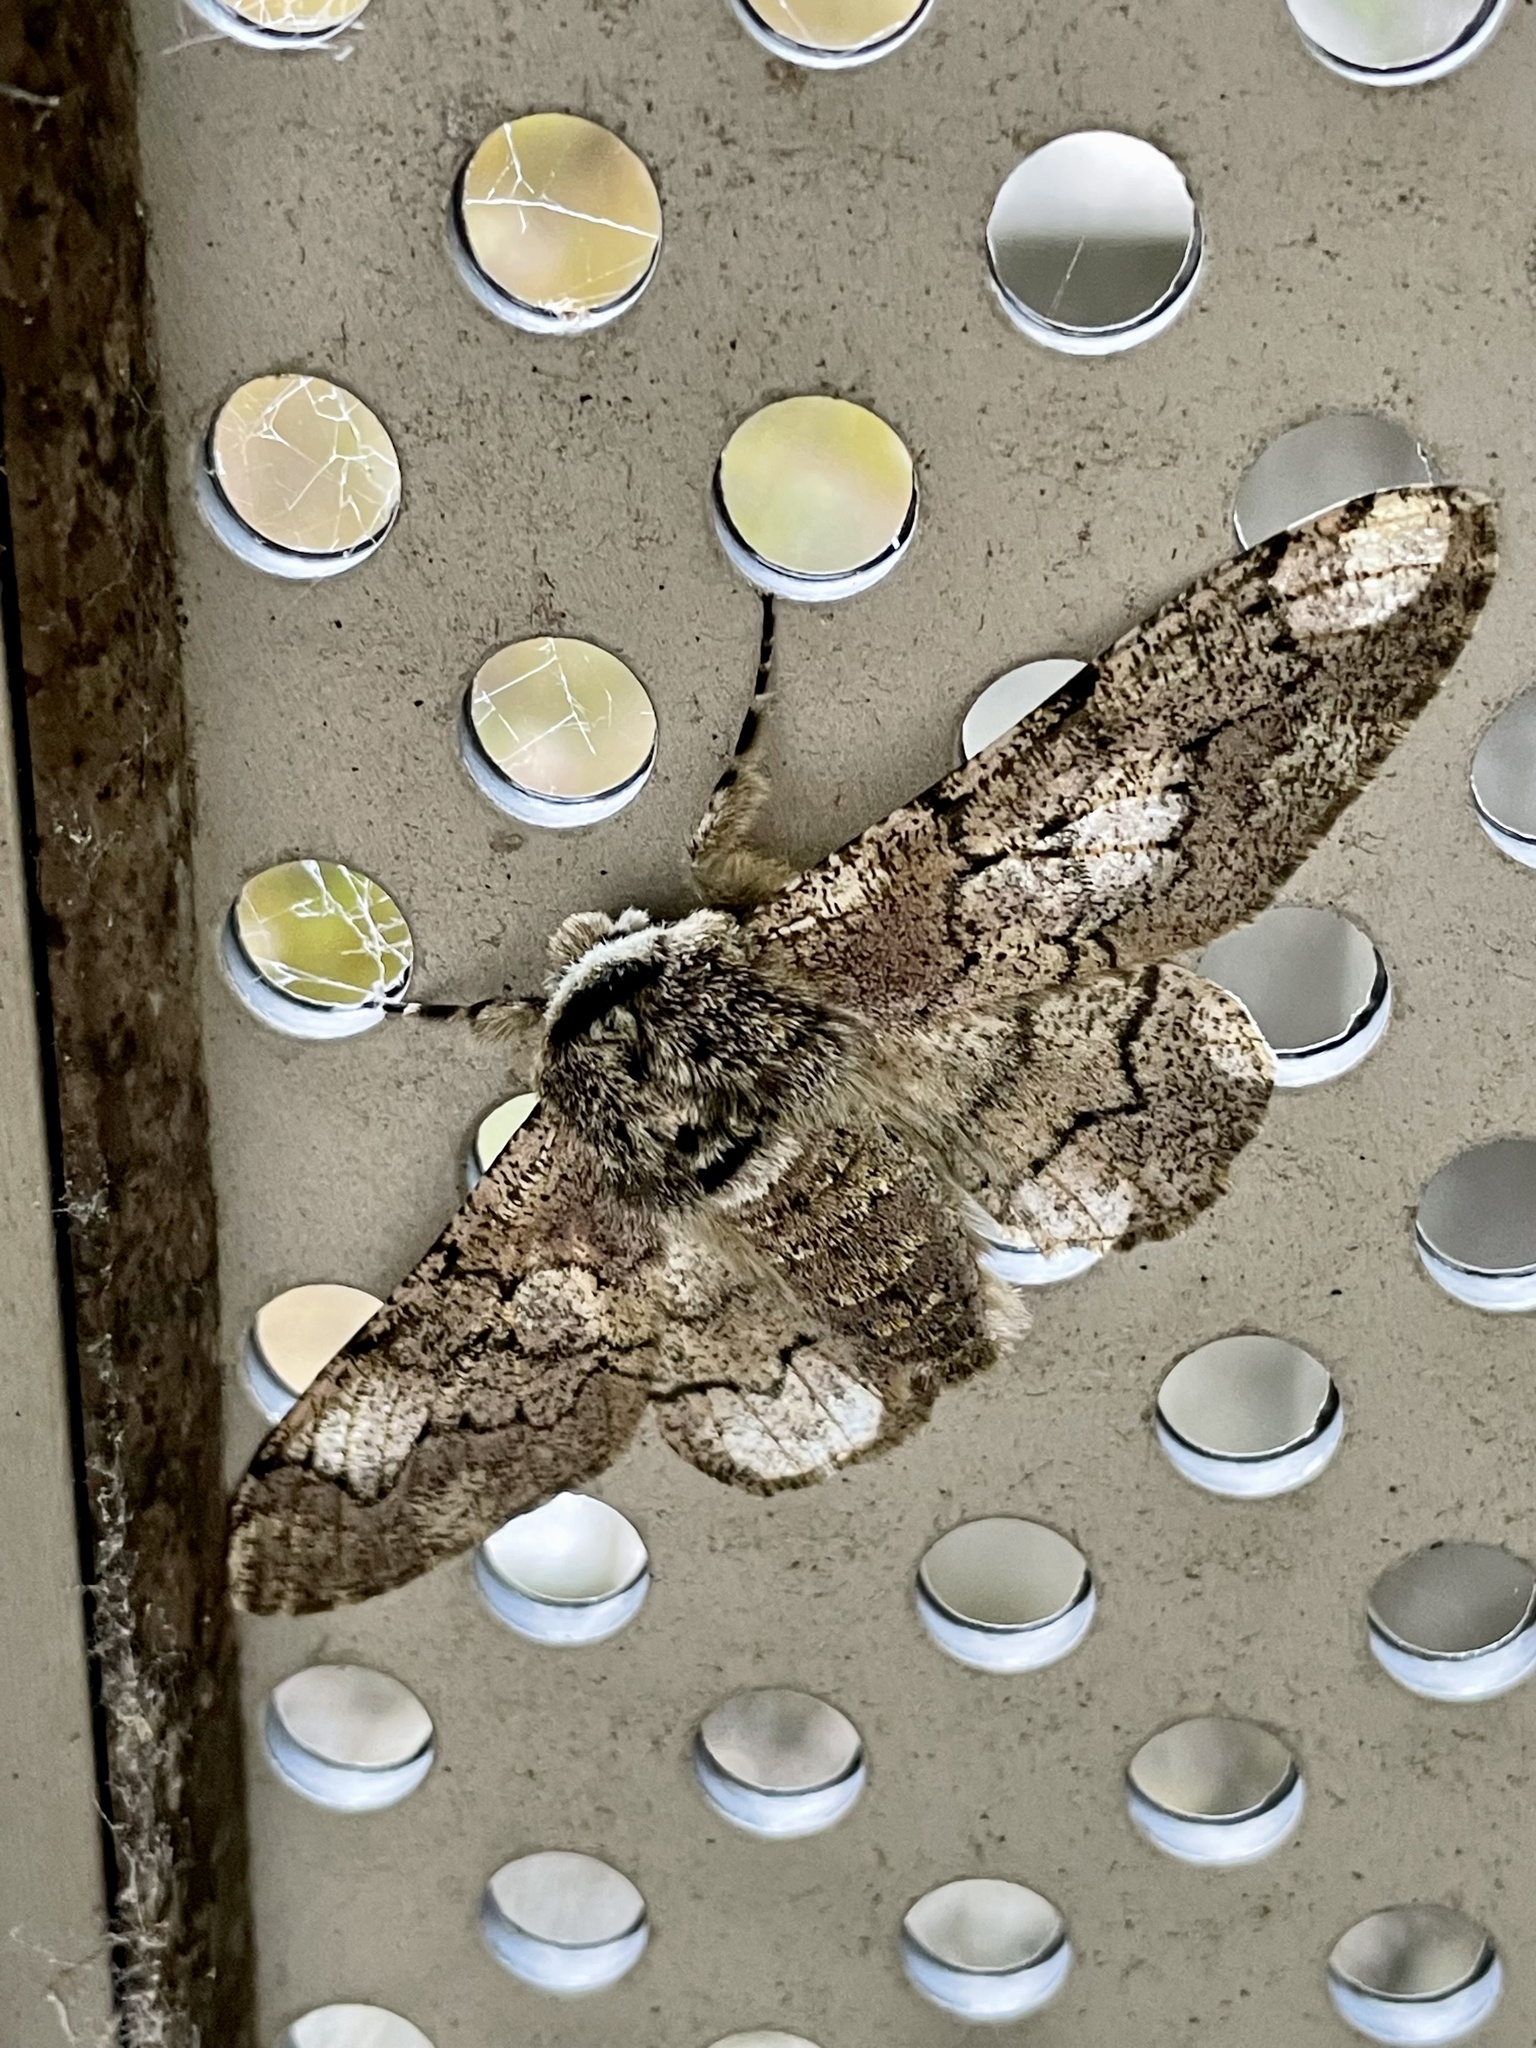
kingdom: Animalia
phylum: Arthropoda
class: Insecta
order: Lepidoptera
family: Geometridae
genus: Biston
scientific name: Biston robustum
